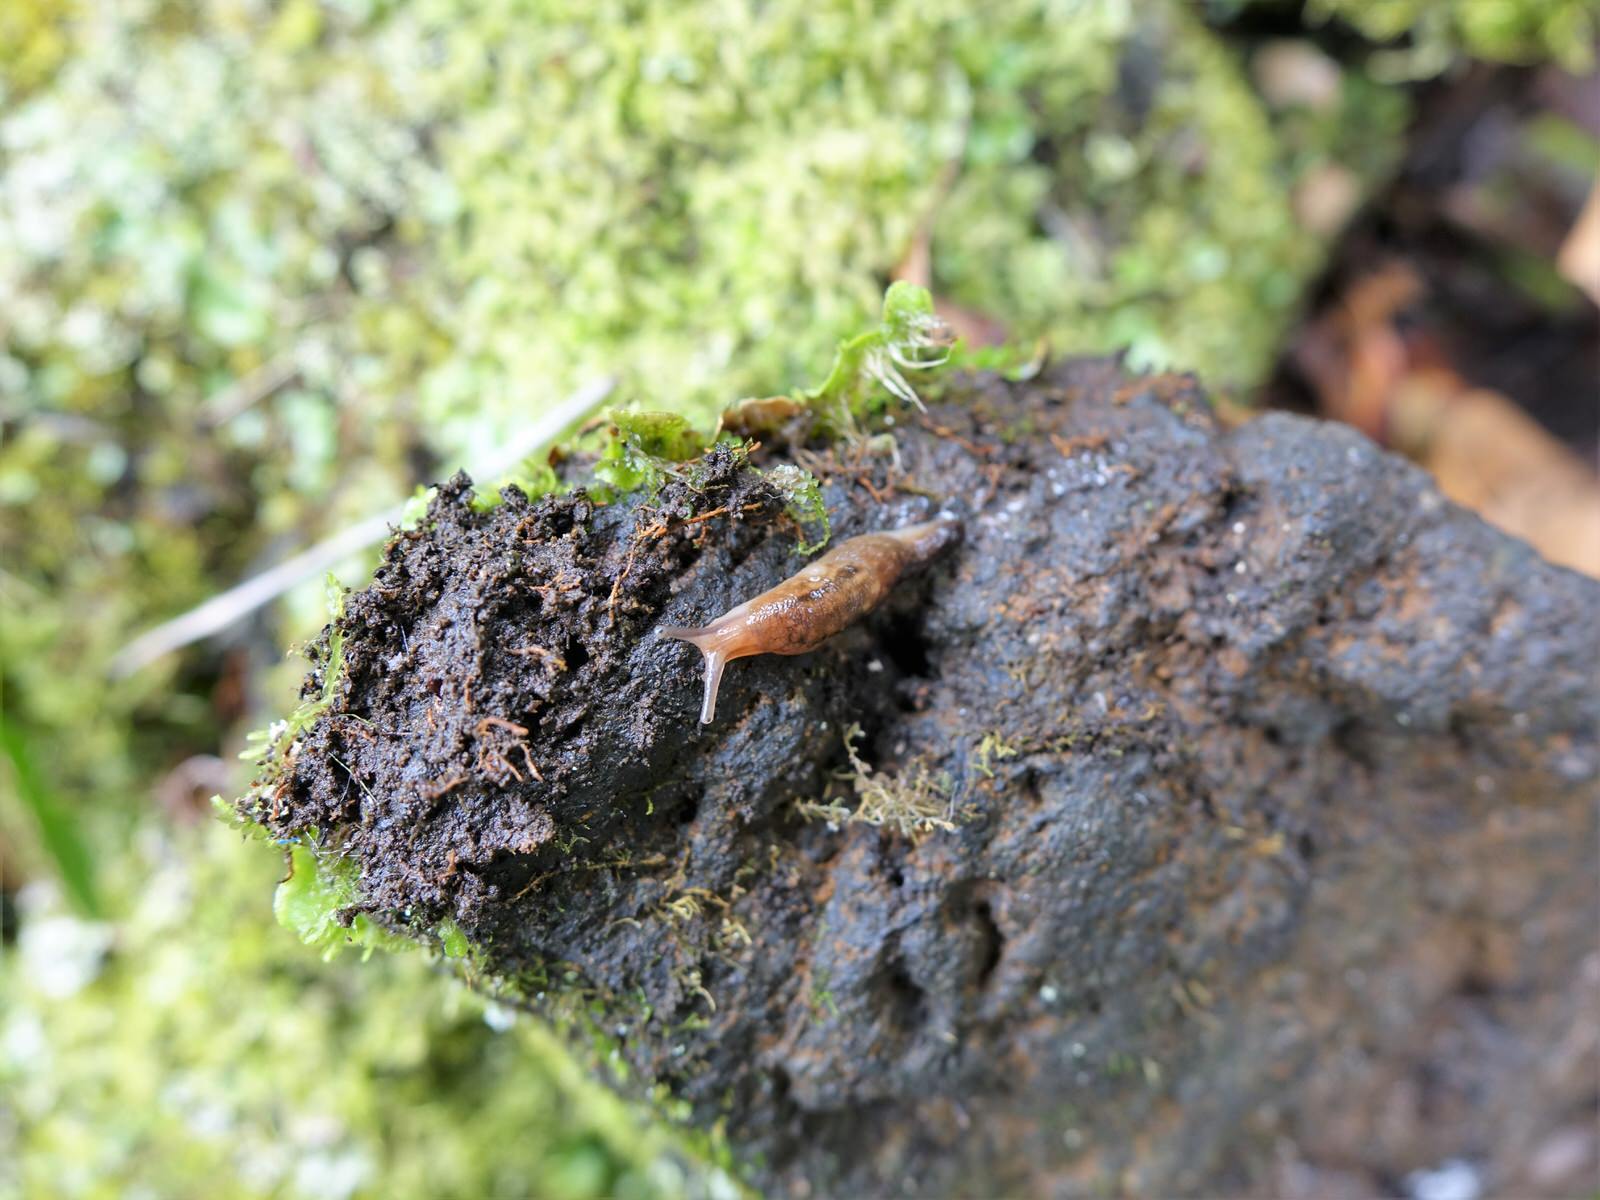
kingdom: Animalia
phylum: Mollusca
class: Gastropoda
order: Stylommatophora
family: Limacidae
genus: Ambigolimax
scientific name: Ambigolimax
